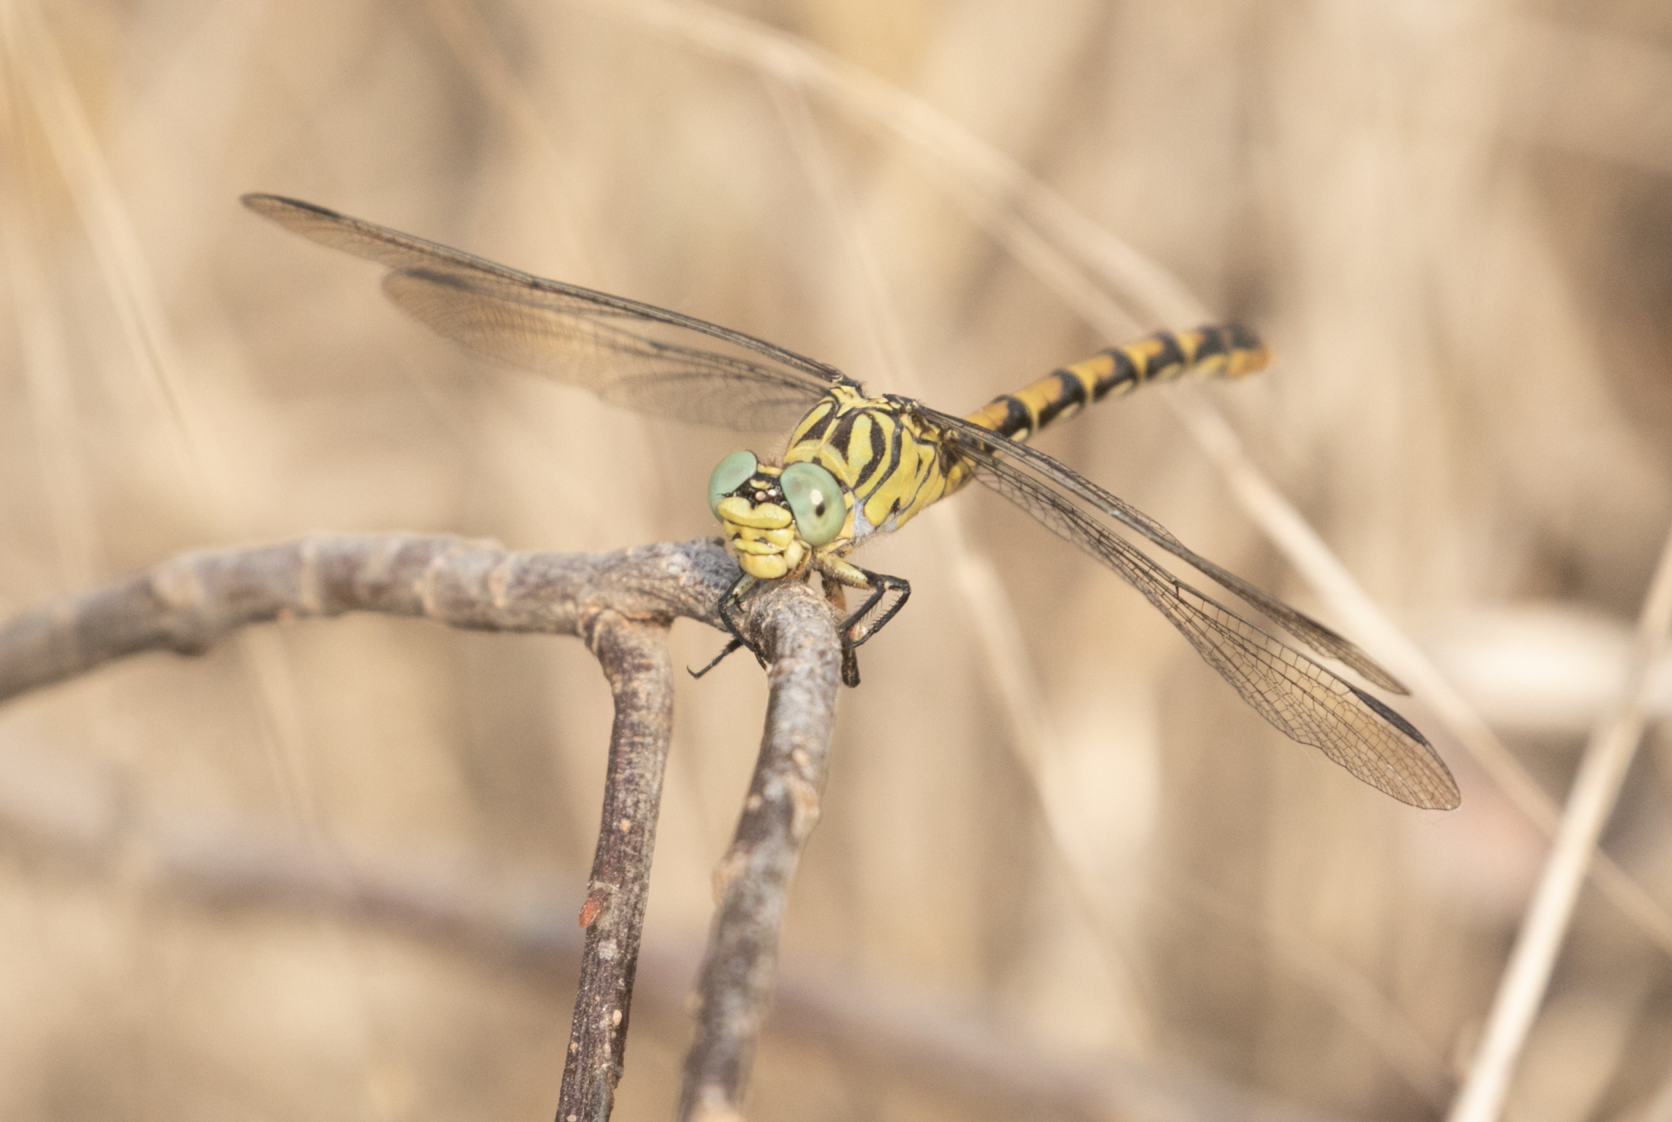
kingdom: Animalia
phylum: Arthropoda
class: Insecta
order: Odonata
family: Gomphidae
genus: Onychogomphus
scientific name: Onychogomphus forcipatus
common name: Small pincertail
